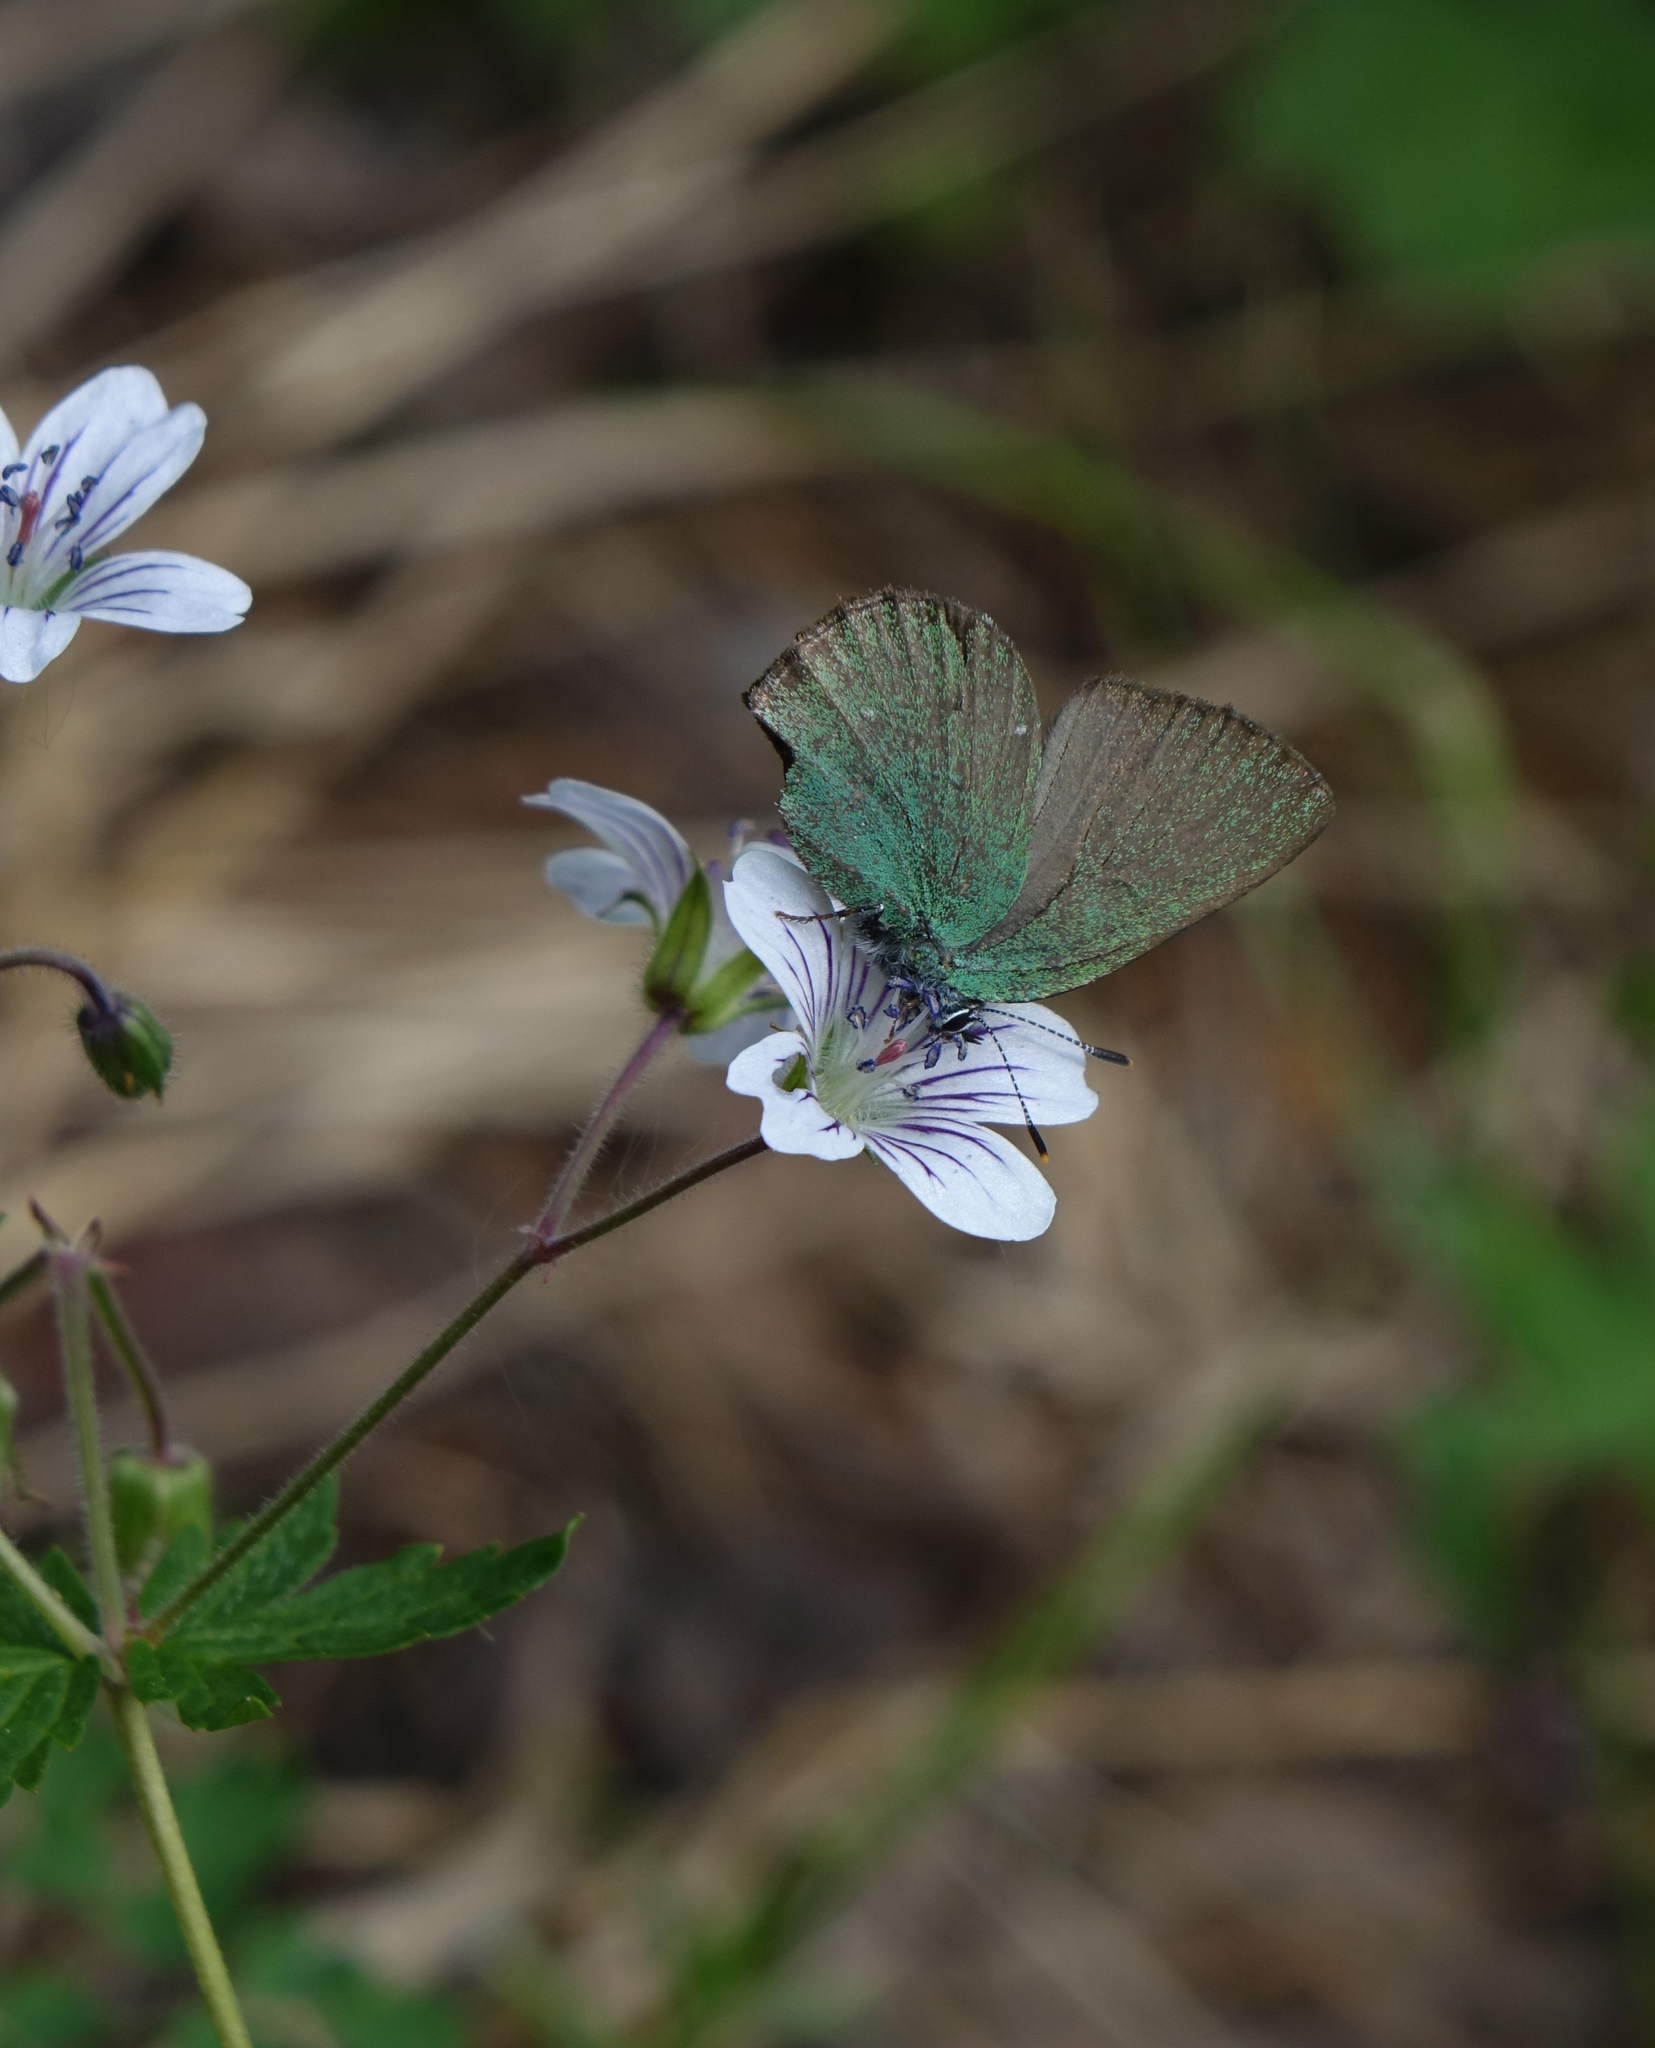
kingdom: Animalia
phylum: Arthropoda
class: Insecta
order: Lepidoptera
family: Lycaenidae
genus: Callophrys
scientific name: Callophrys rubi
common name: Green hairstreak
